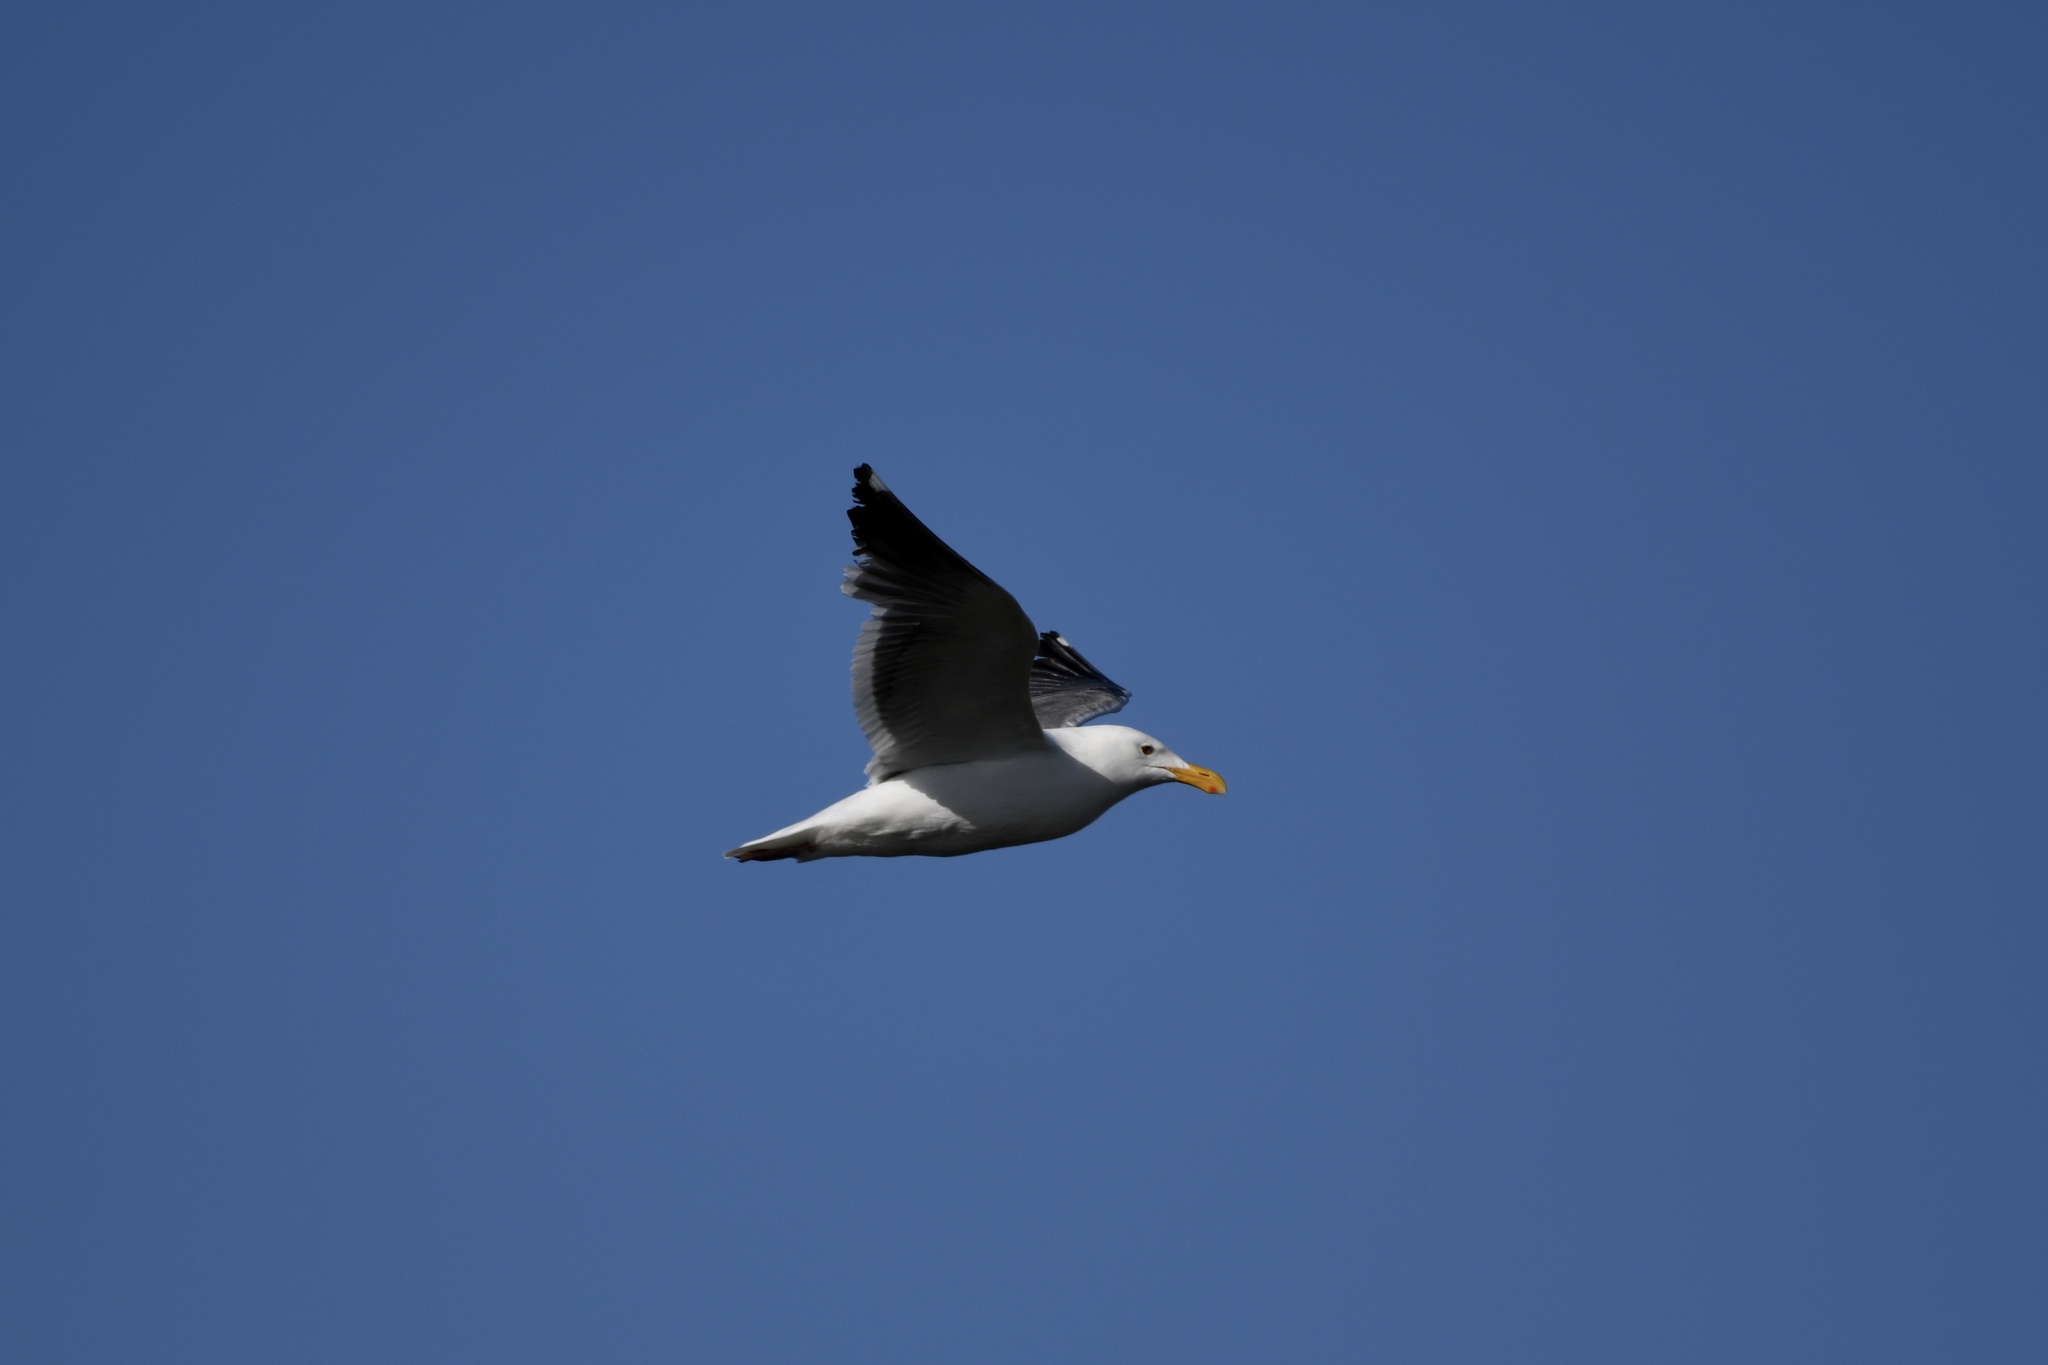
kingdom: Animalia
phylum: Chordata
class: Aves
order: Charadriiformes
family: Laridae
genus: Larus
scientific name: Larus occidentalis
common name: Western gull
